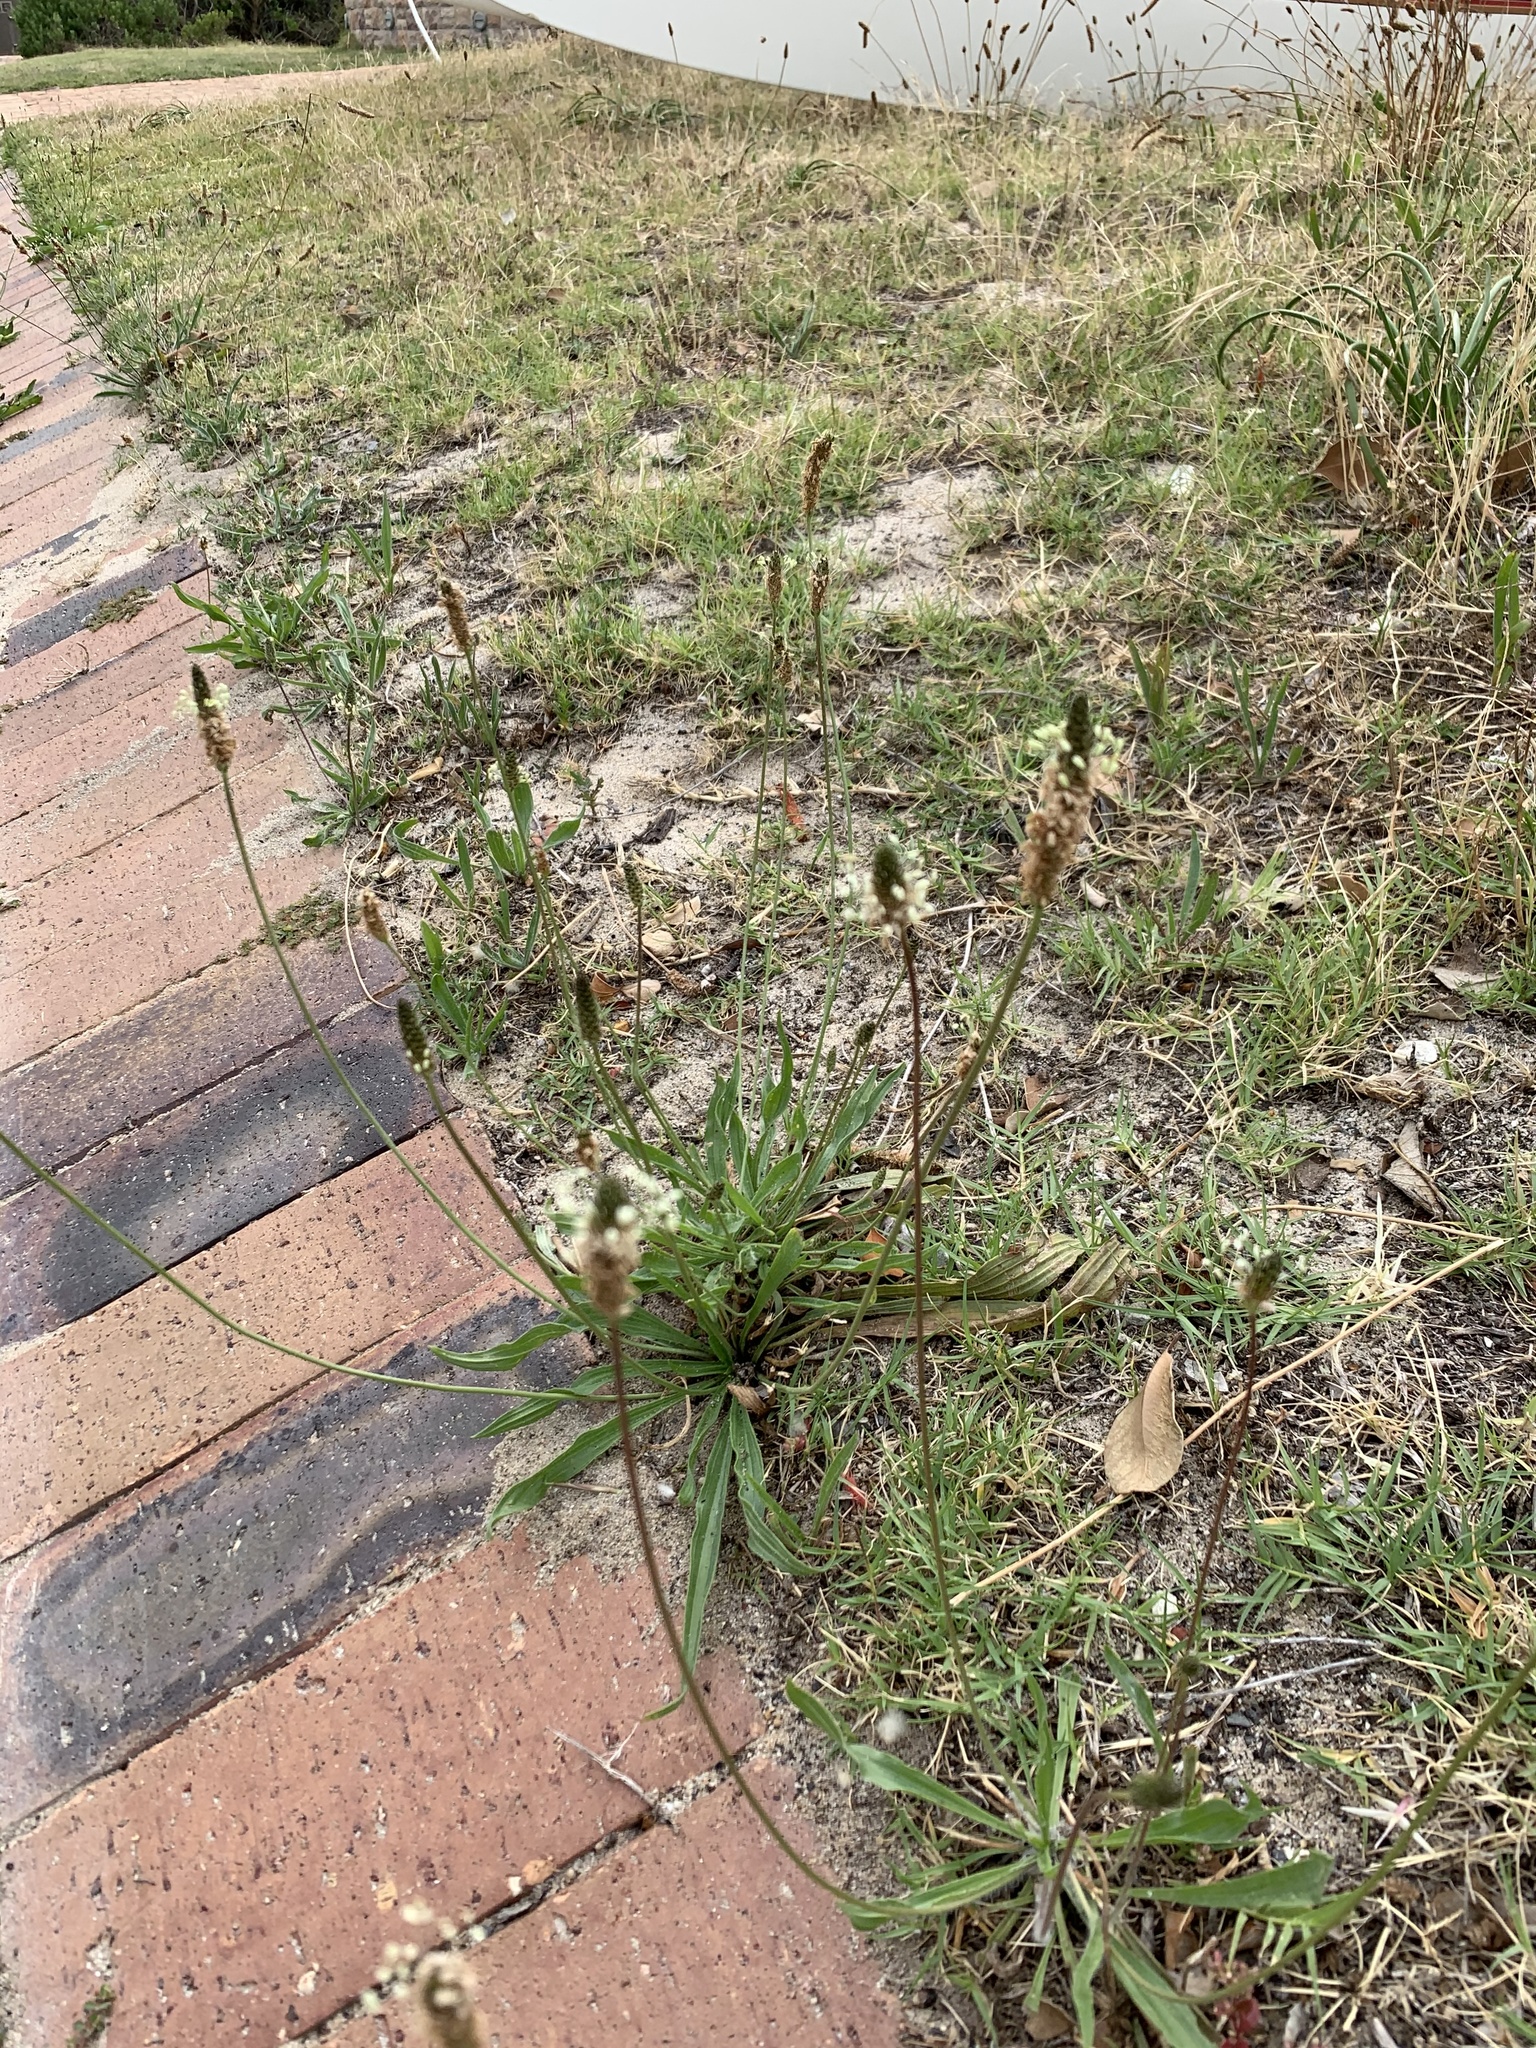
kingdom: Plantae
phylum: Tracheophyta
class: Magnoliopsida
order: Lamiales
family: Plantaginaceae
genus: Plantago
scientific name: Plantago lanceolata
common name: Ribwort plantain
